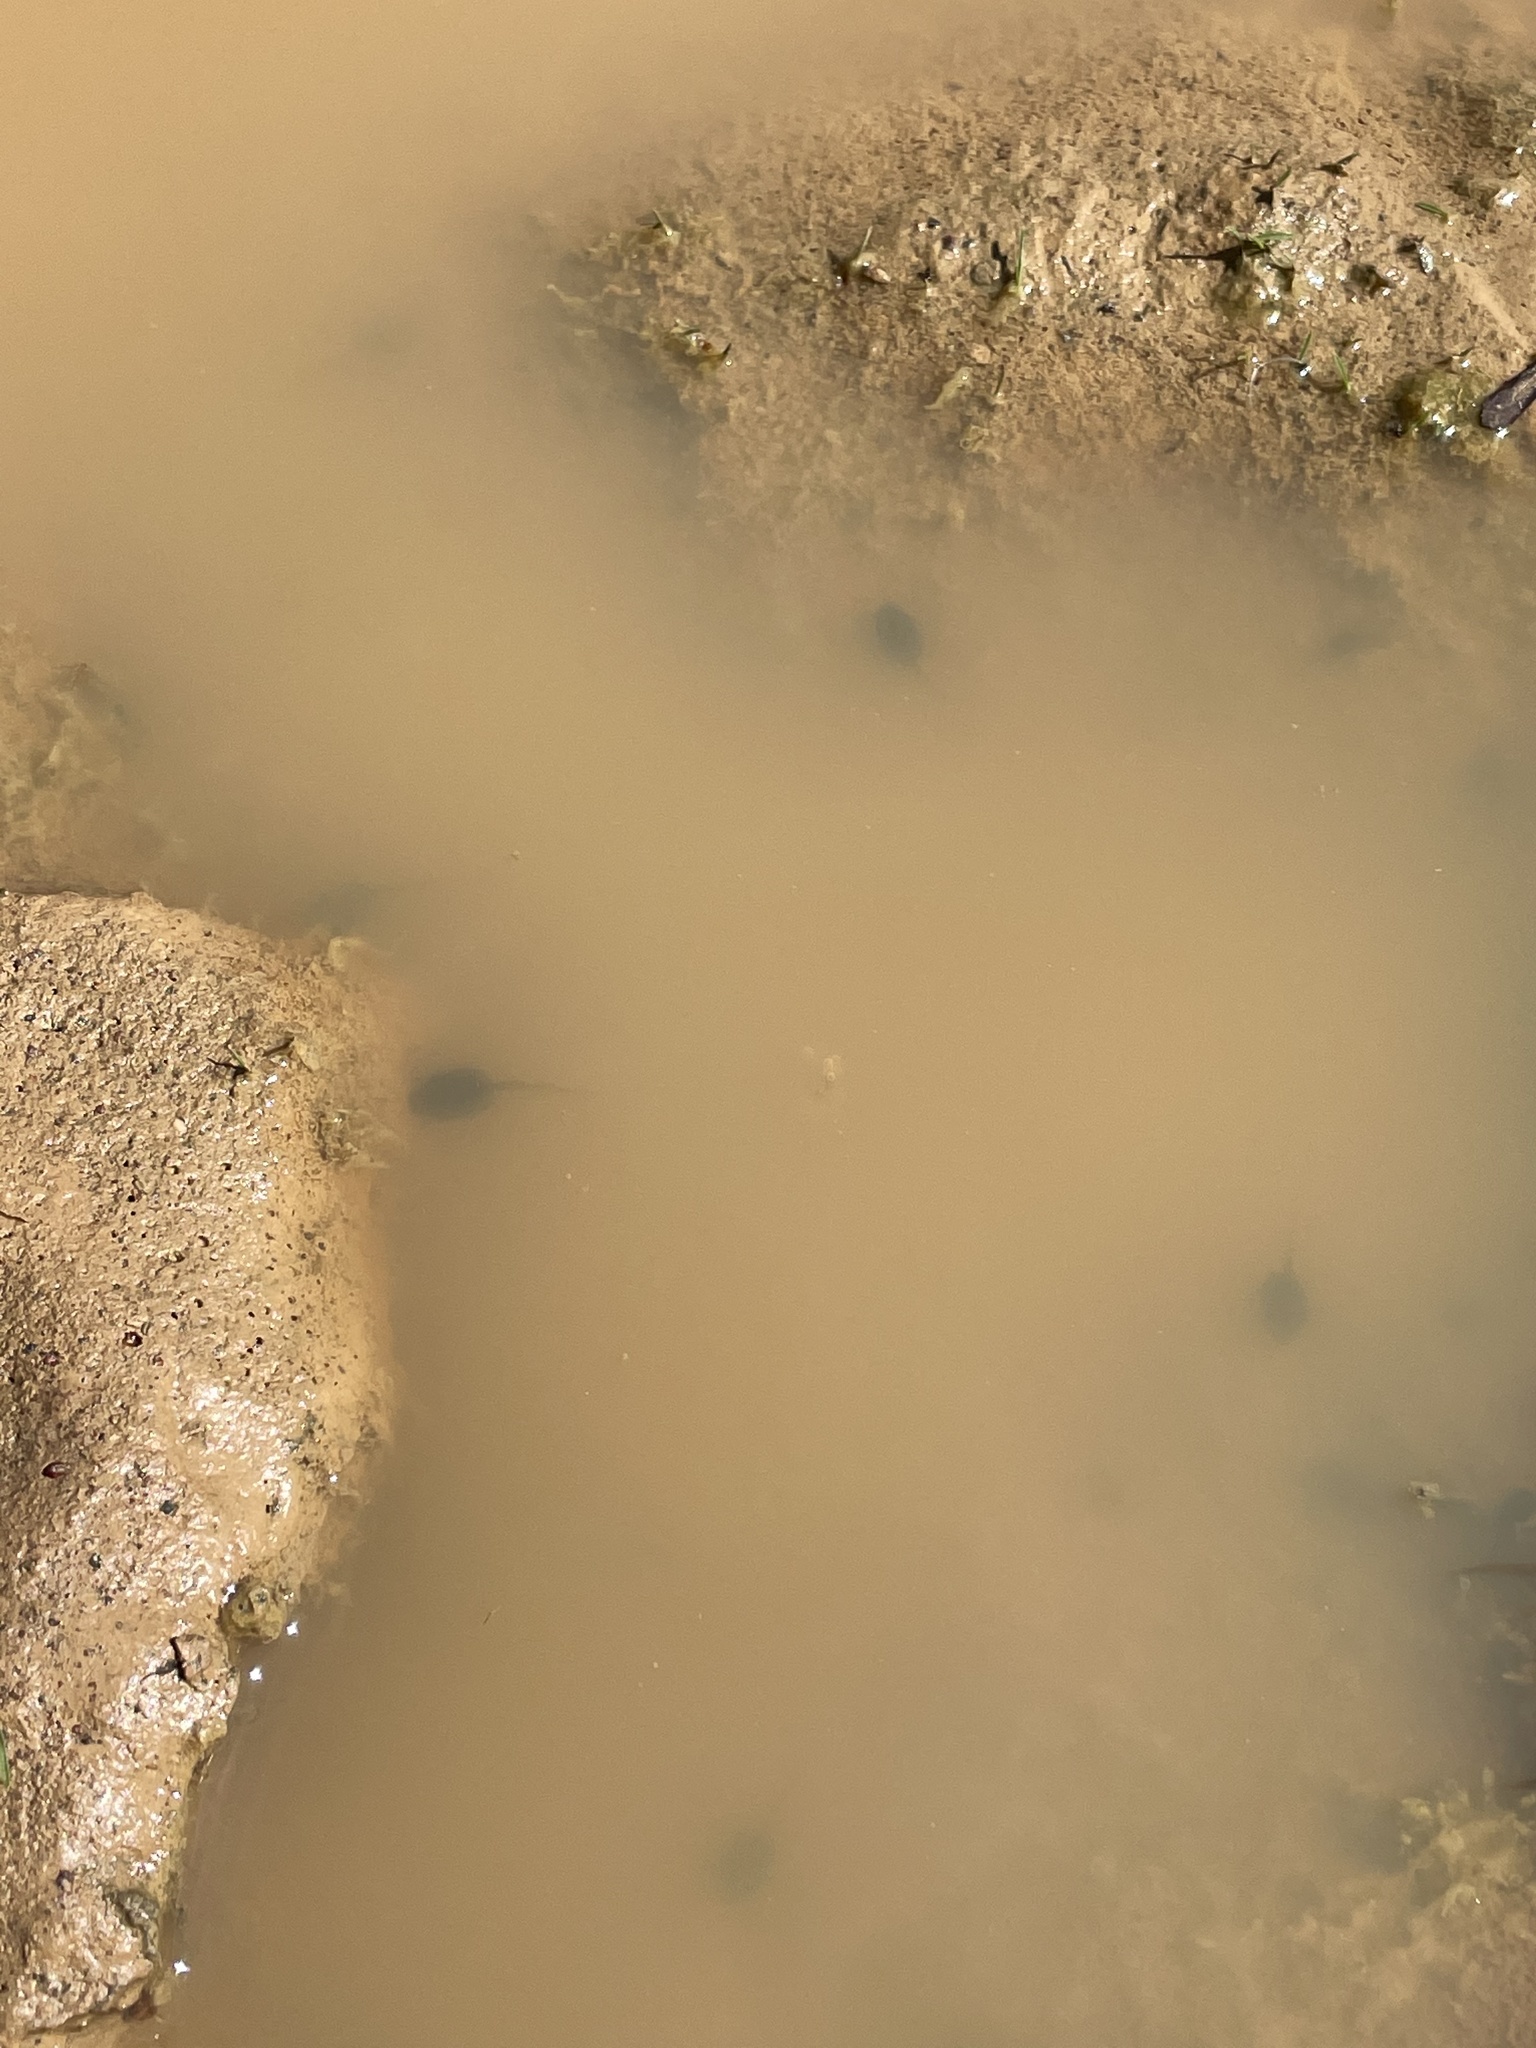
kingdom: Animalia
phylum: Chordata
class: Amphibia
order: Anura
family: Hylidae
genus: Pseudacris
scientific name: Pseudacris regilla
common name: Pacific chorus frog
